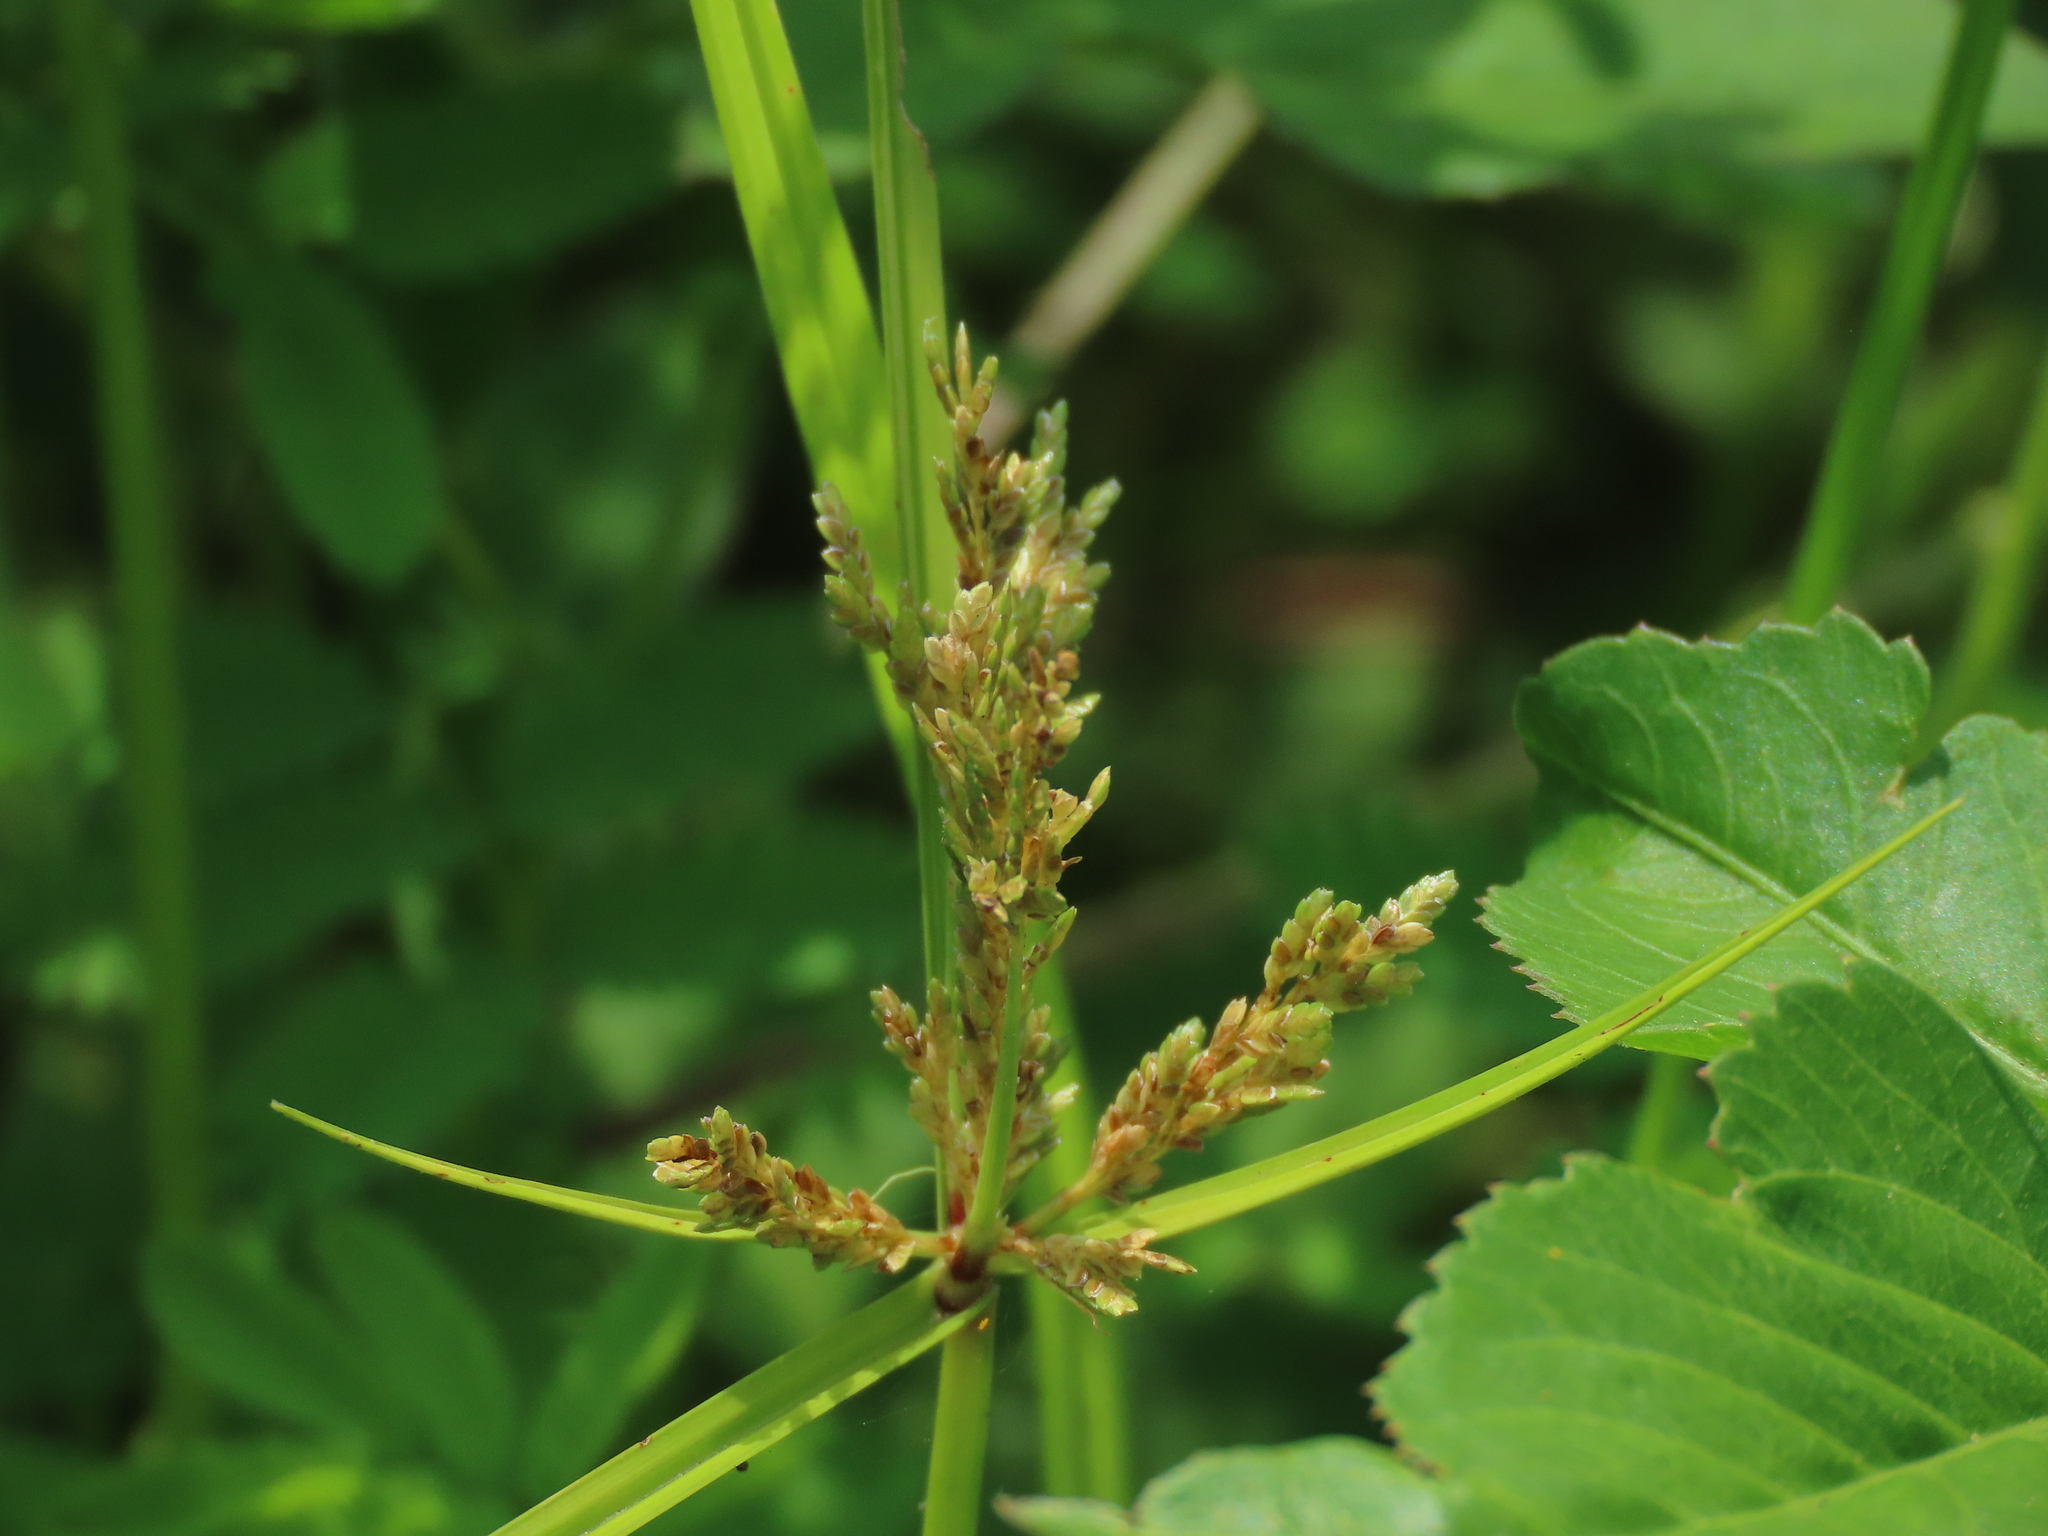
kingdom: Plantae
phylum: Tracheophyta
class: Liliopsida
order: Poales
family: Cyperaceae
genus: Cyperus
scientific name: Cyperus iria
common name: Ricefield flatsedge
